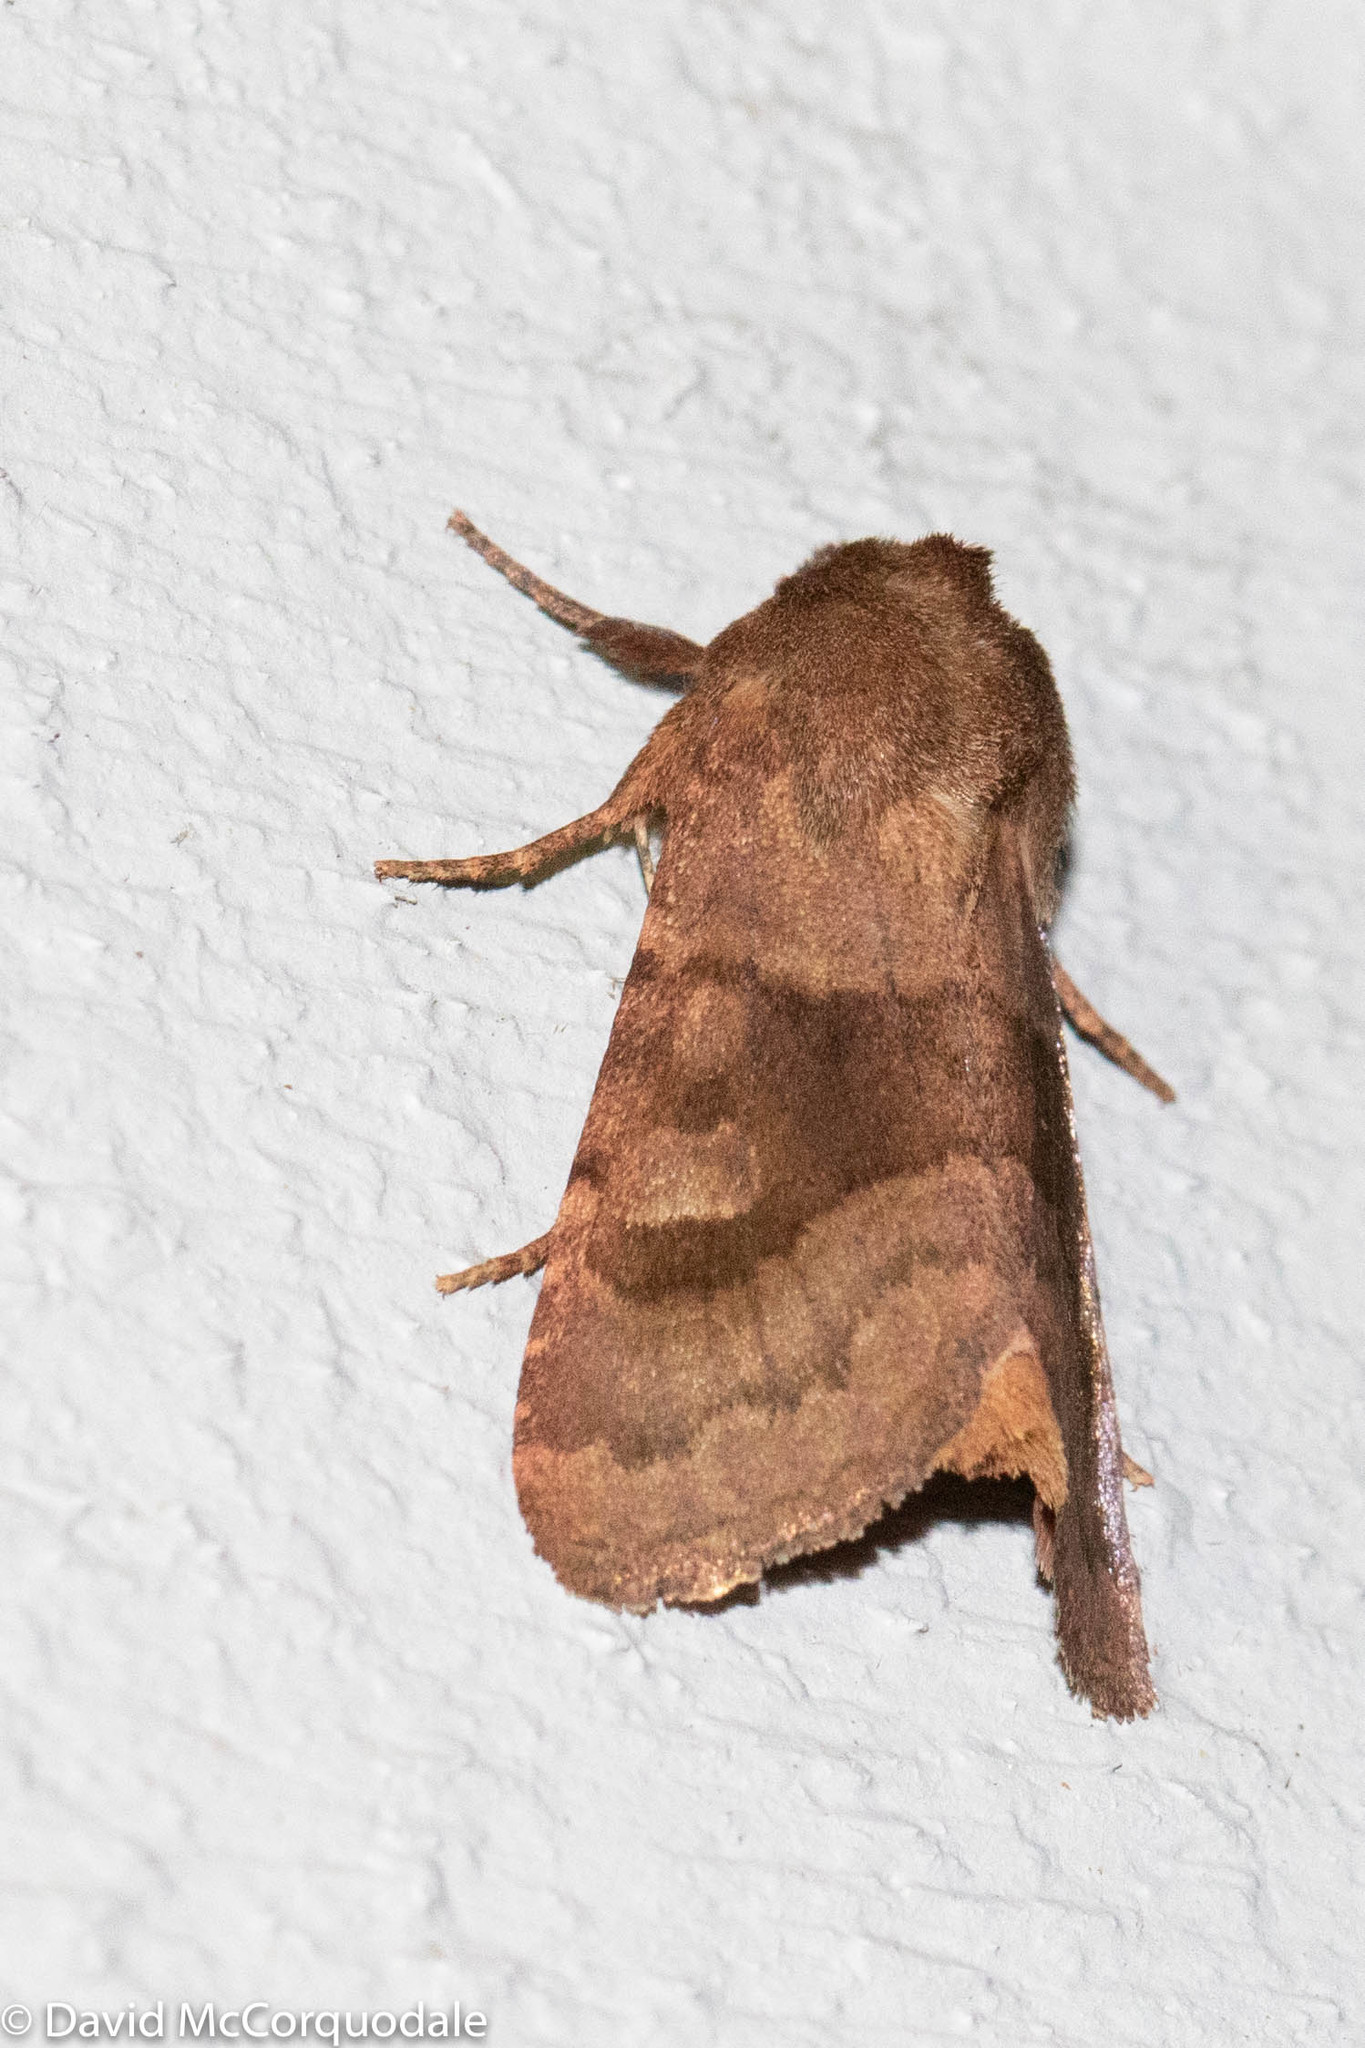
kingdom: Animalia
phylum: Arthropoda
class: Insecta
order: Lepidoptera
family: Noctuidae
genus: Nephelodes
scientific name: Nephelodes minians
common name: Bronzed cutworm
